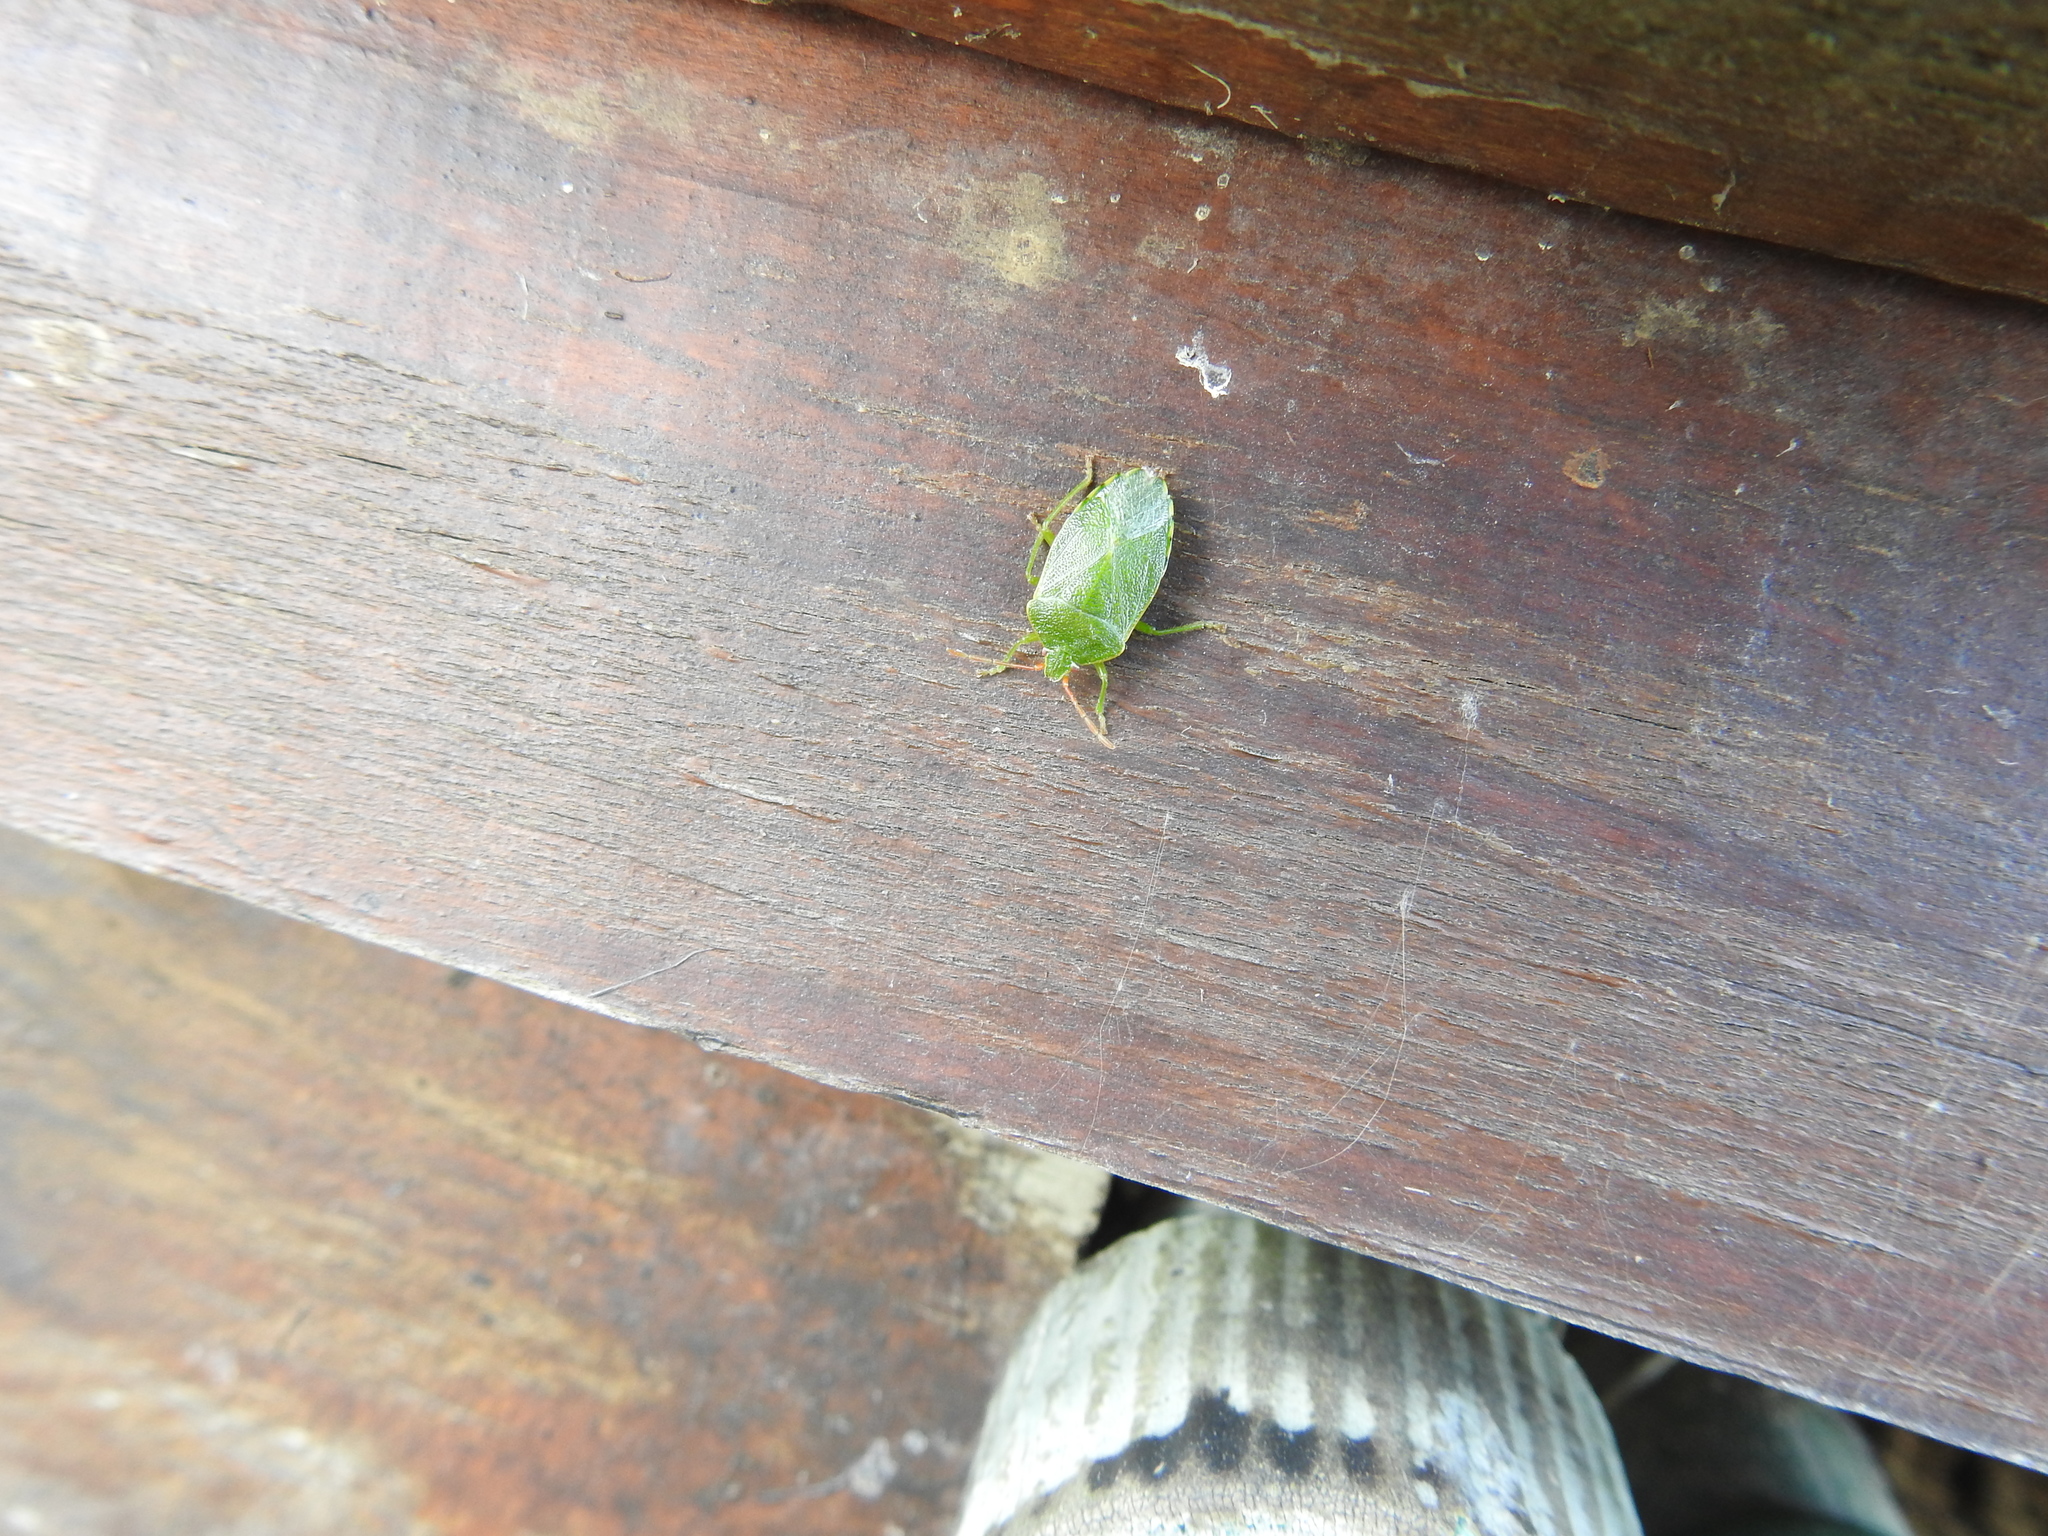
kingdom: Animalia
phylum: Arthropoda
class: Insecta
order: Hemiptera
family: Acanthosomatidae
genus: Sinopla
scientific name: Sinopla perpunctatus
